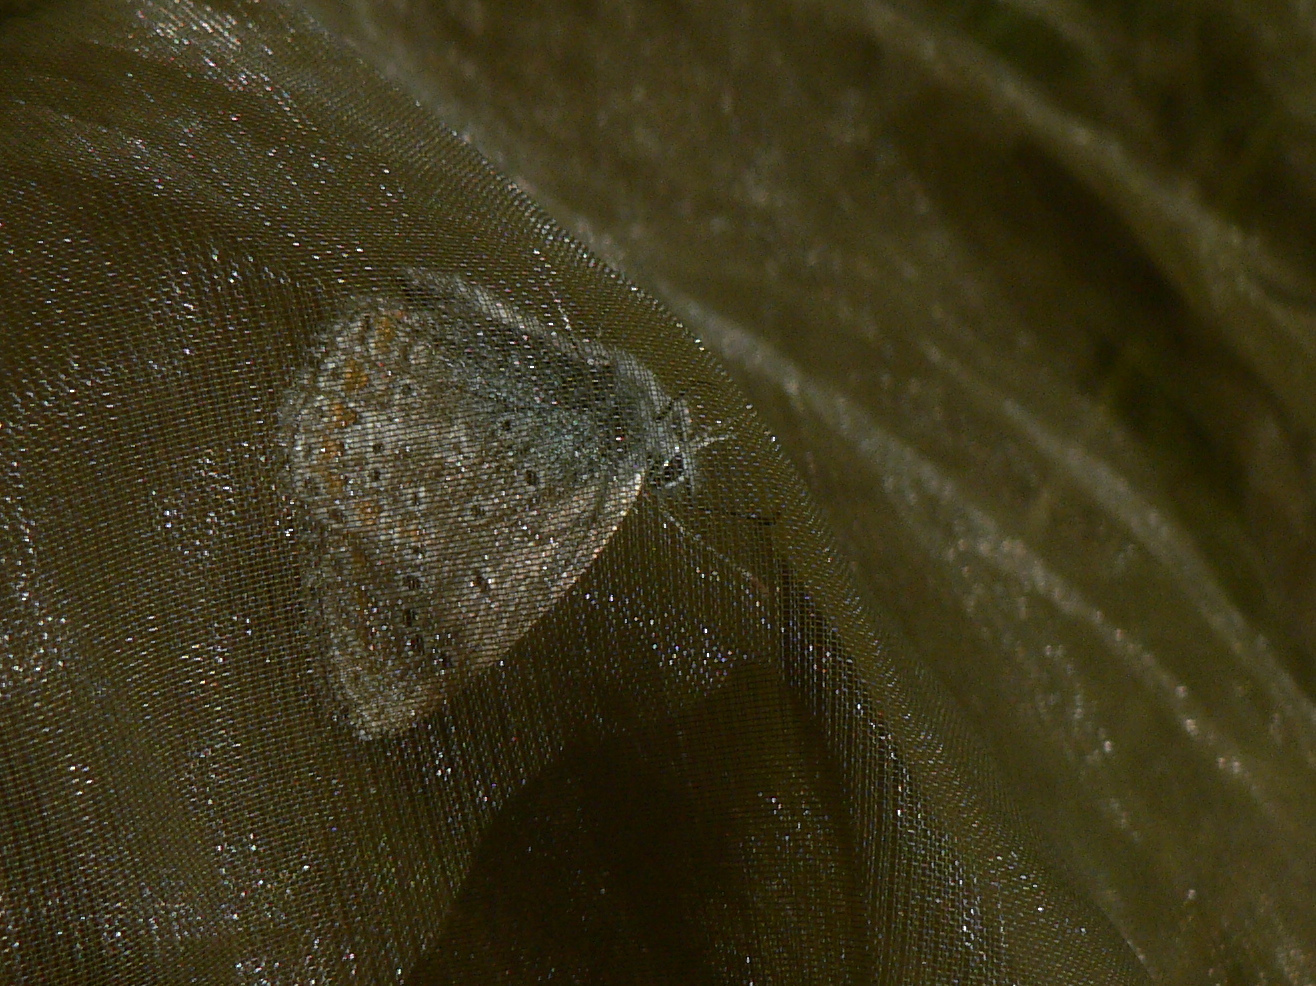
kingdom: Animalia
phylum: Arthropoda
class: Insecta
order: Lepidoptera
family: Lycaenidae
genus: Polyommatus
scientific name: Polyommatus icarus
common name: Common blue
